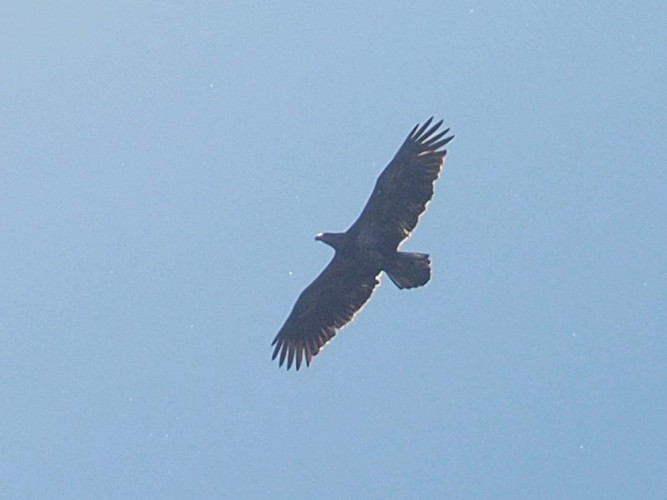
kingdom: Animalia
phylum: Chordata
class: Aves
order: Accipitriformes
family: Accipitridae
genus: Haliaeetus
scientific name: Haliaeetus leucocephalus
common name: Bald eagle
